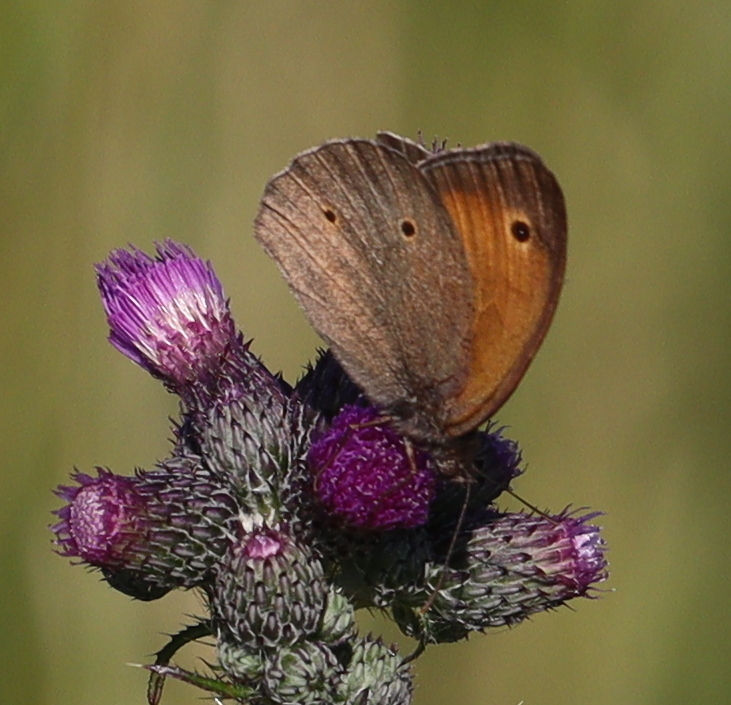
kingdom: Animalia
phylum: Arthropoda
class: Insecta
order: Lepidoptera
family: Nymphalidae
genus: Maniola
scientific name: Maniola jurtina
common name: Meadow brown
